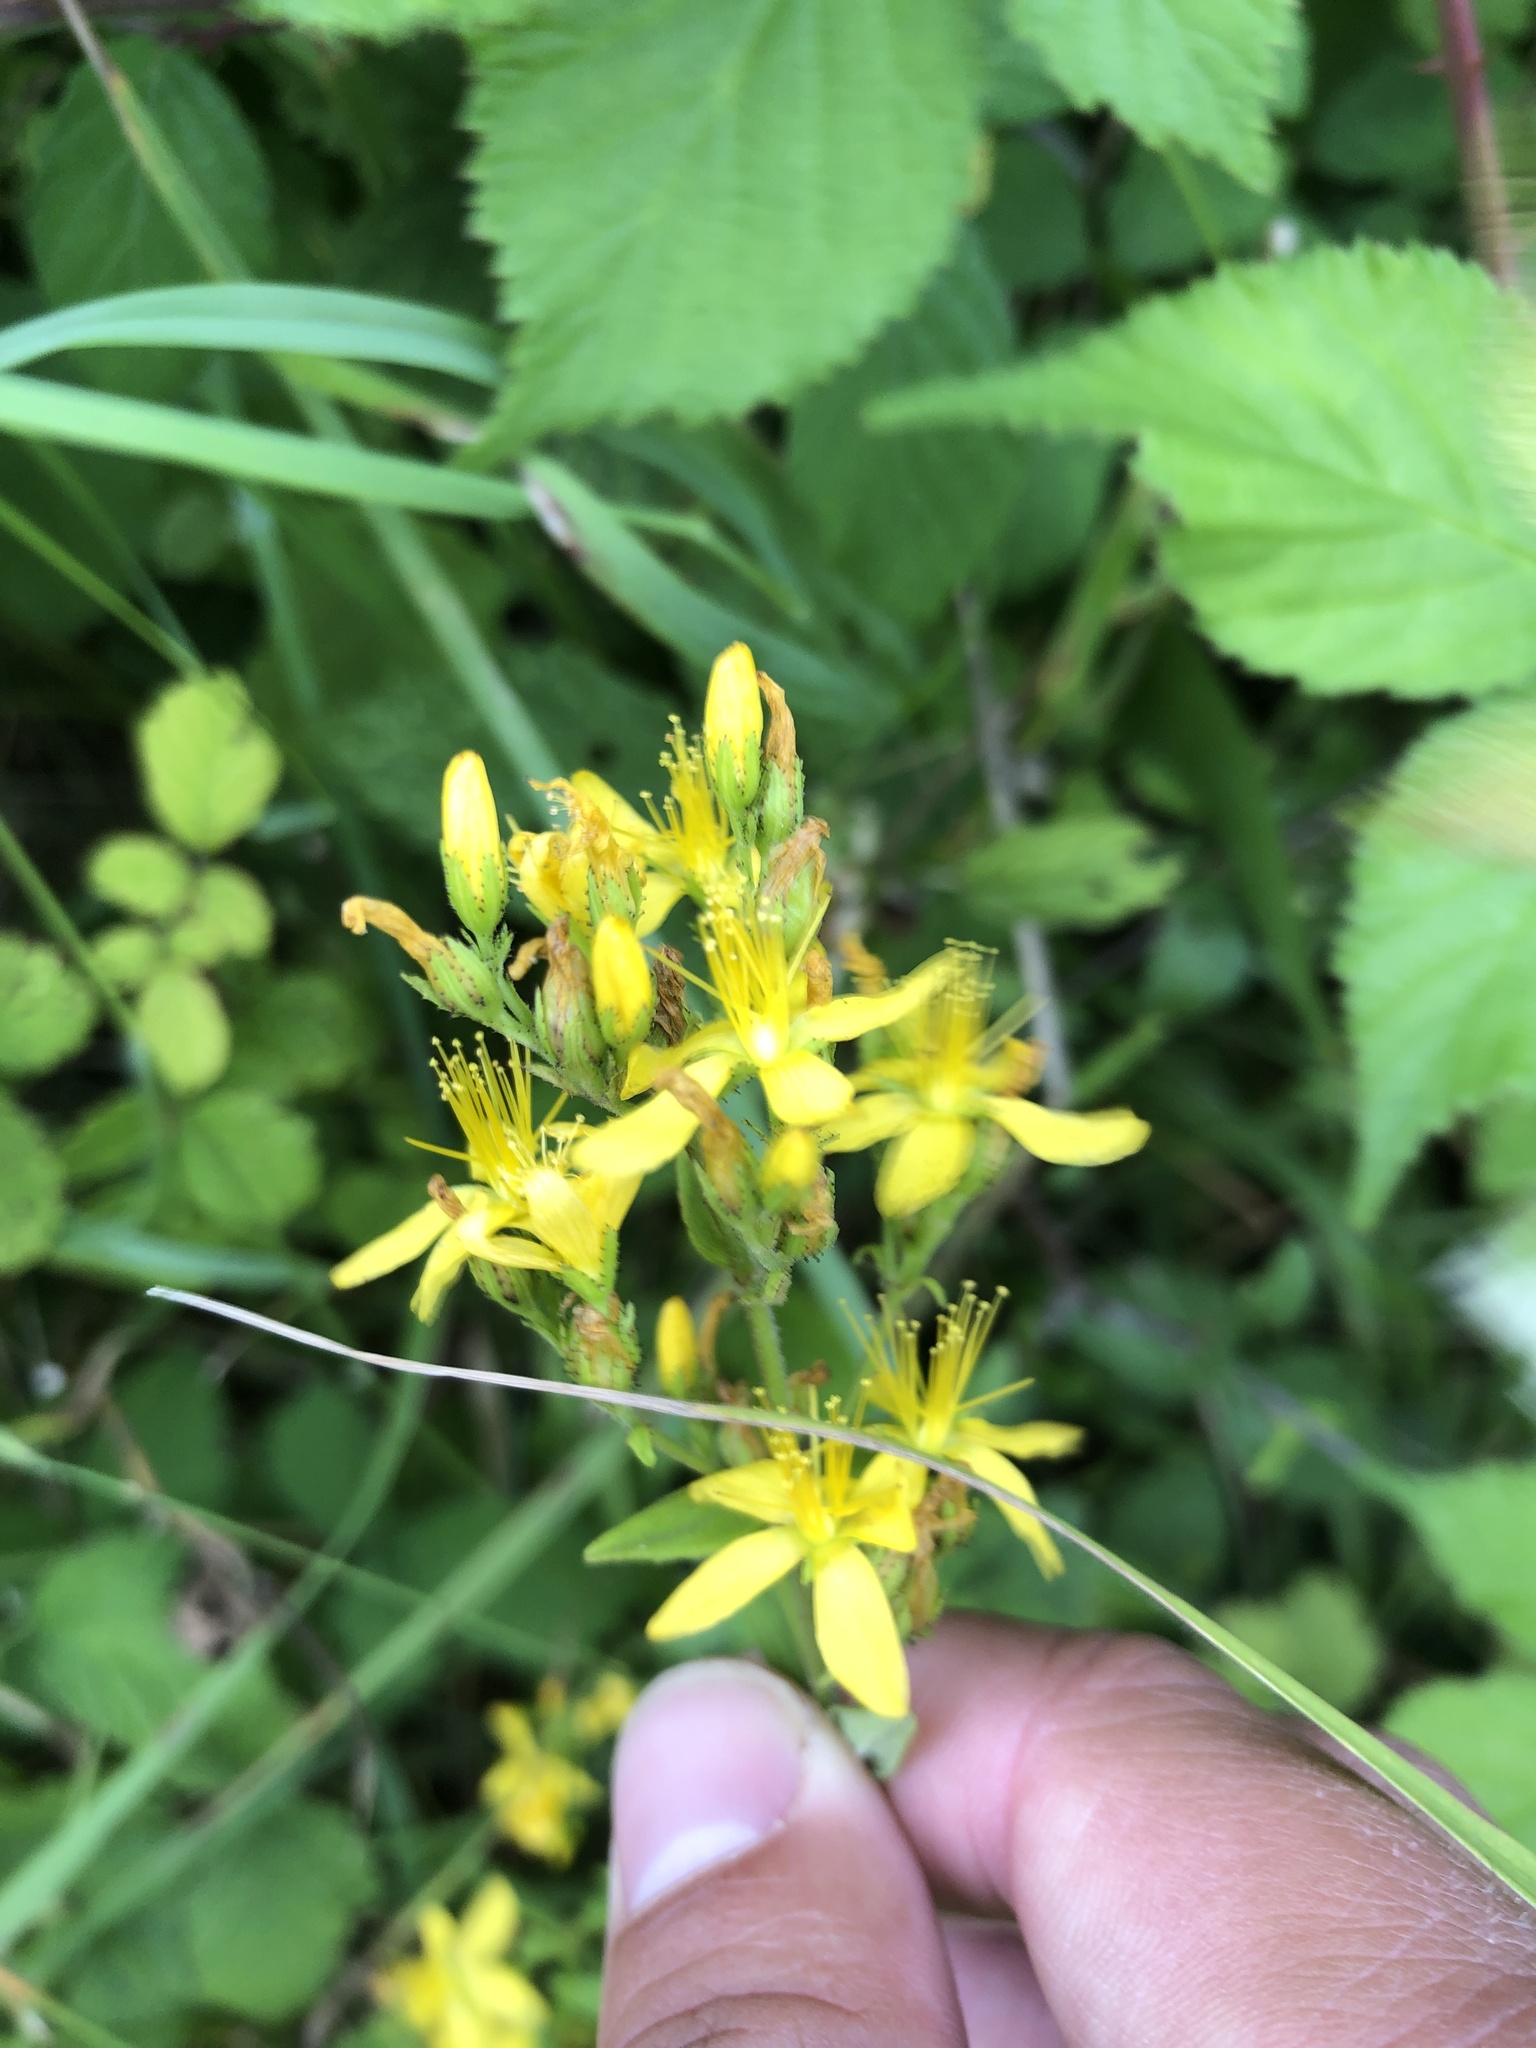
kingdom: Plantae
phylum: Tracheophyta
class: Magnoliopsida
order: Malpighiales
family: Hypericaceae
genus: Hypericum
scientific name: Hypericum hirsutum
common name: Hairy st. john's-wort
